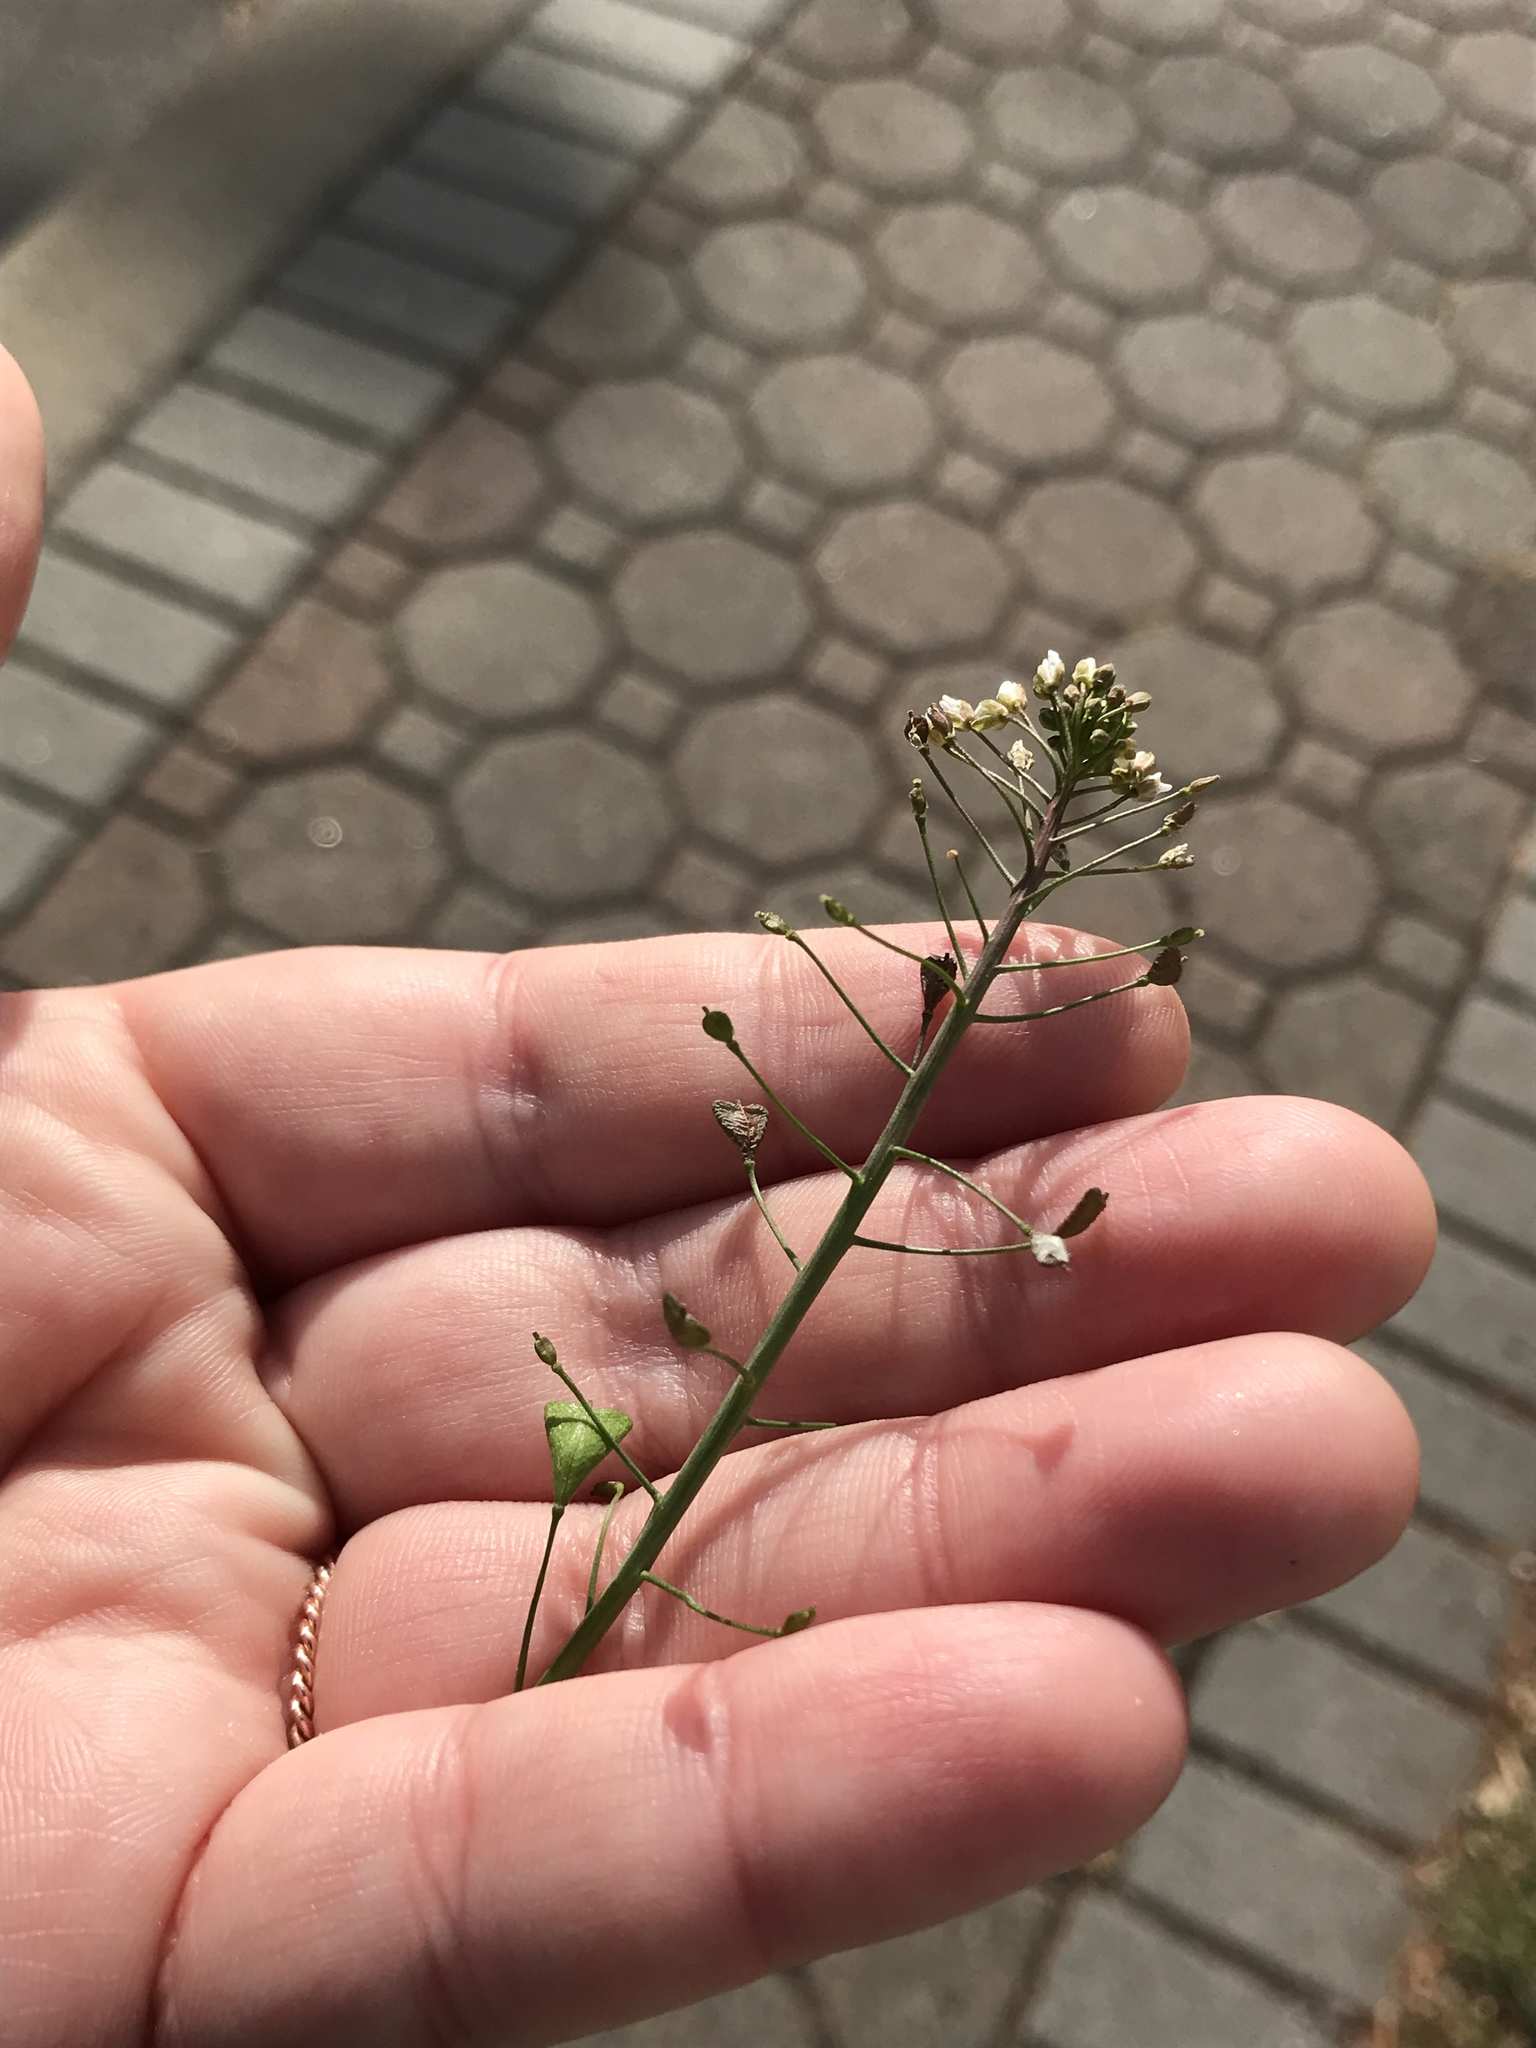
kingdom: Plantae
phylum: Tracheophyta
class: Magnoliopsida
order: Brassicales
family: Brassicaceae
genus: Capsella
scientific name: Capsella bursa-pastoris
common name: Shepherd's purse
